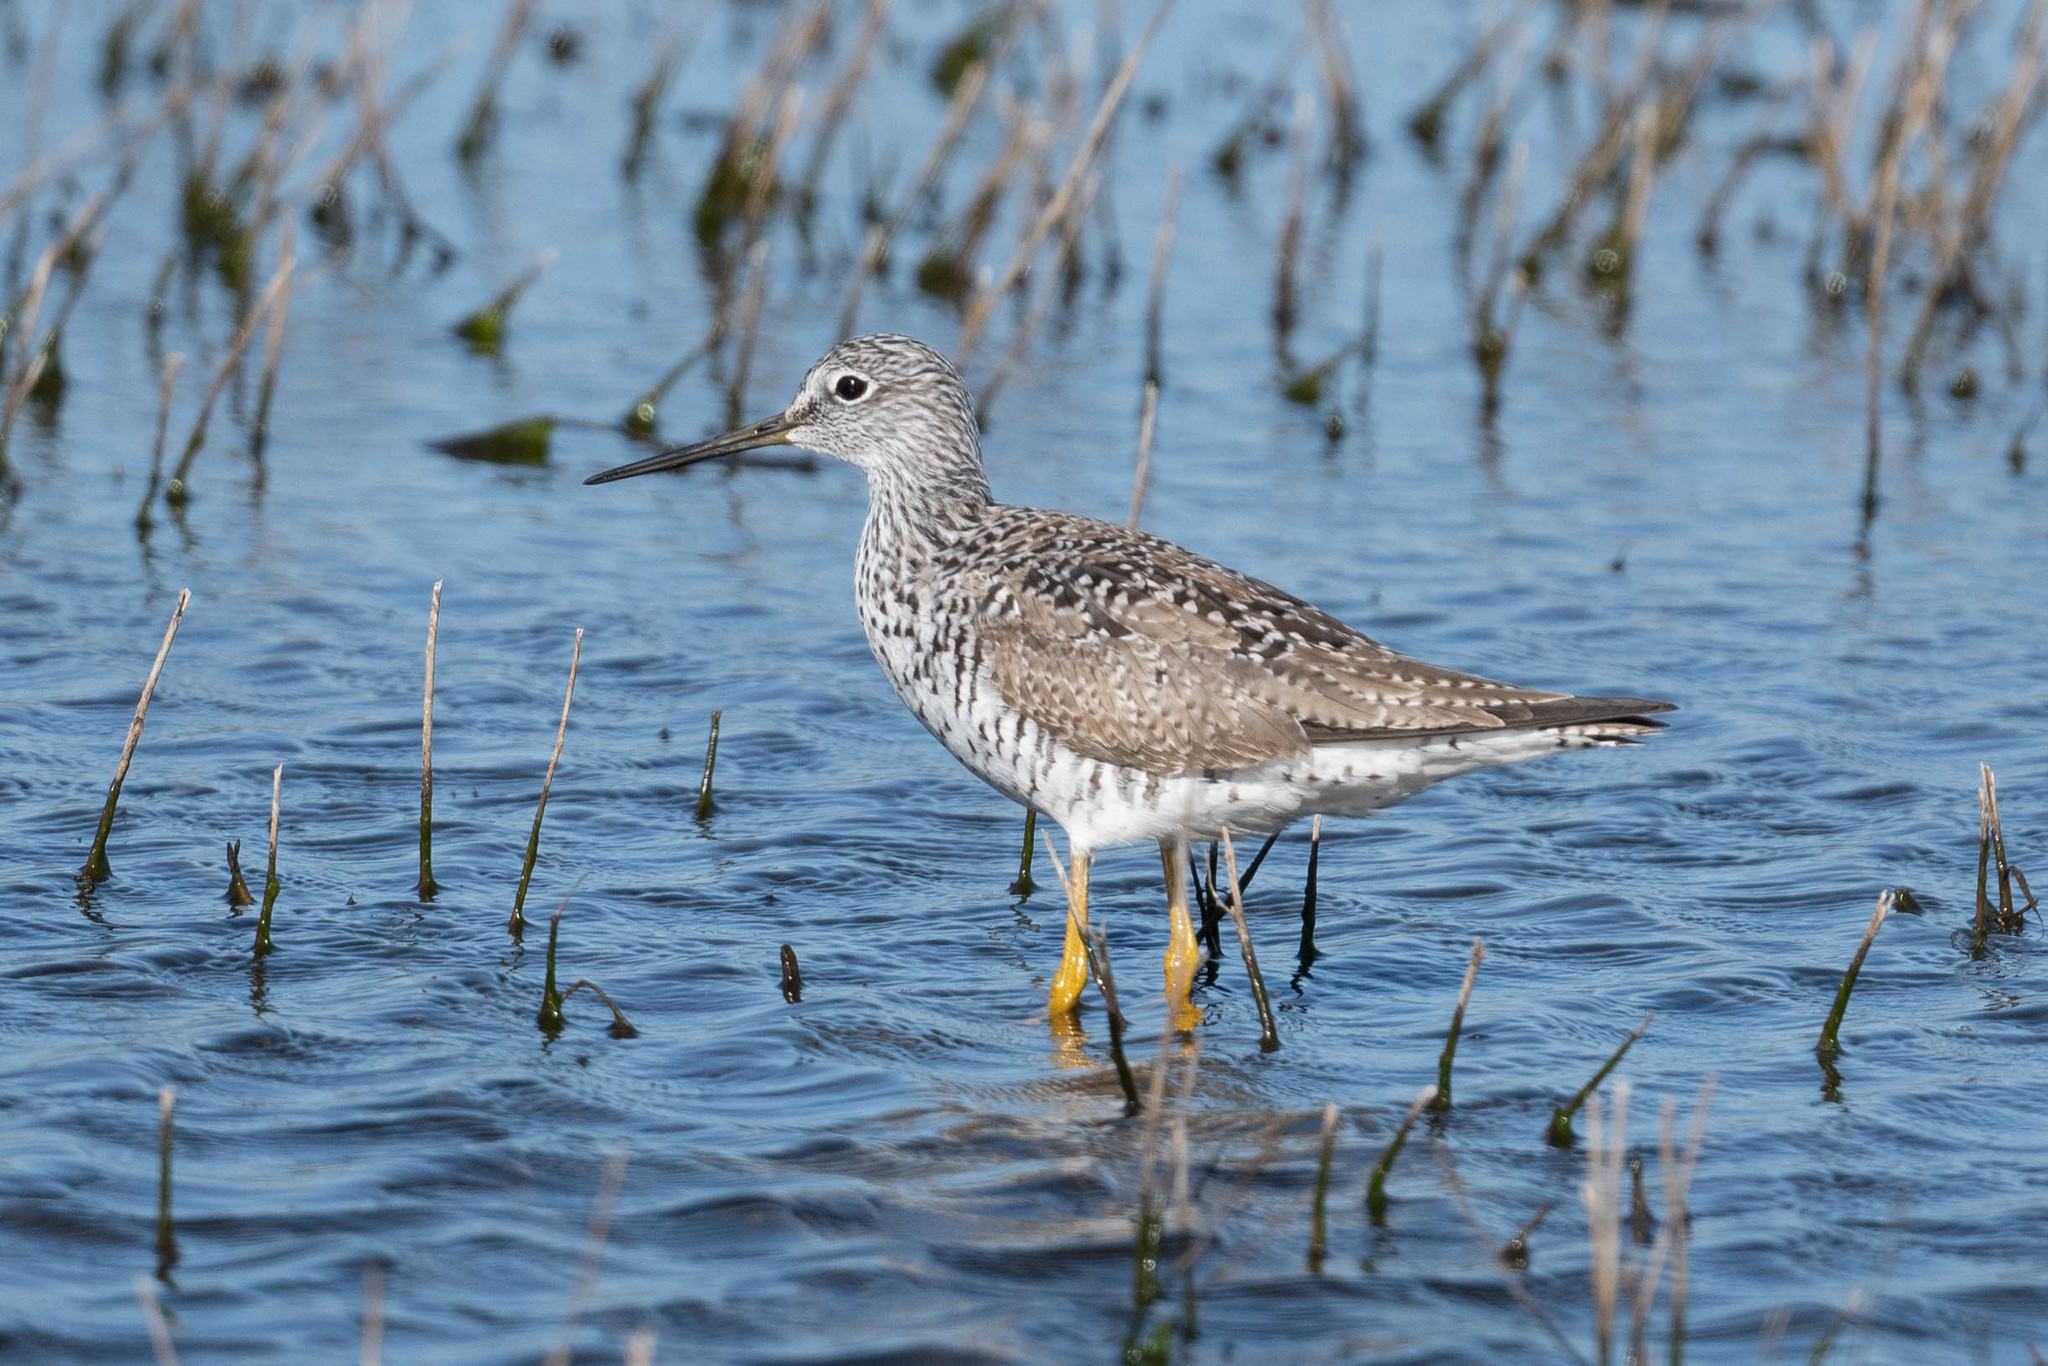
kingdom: Animalia
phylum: Chordata
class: Aves
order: Charadriiformes
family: Scolopacidae
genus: Tringa
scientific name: Tringa melanoleuca
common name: Greater yellowlegs
